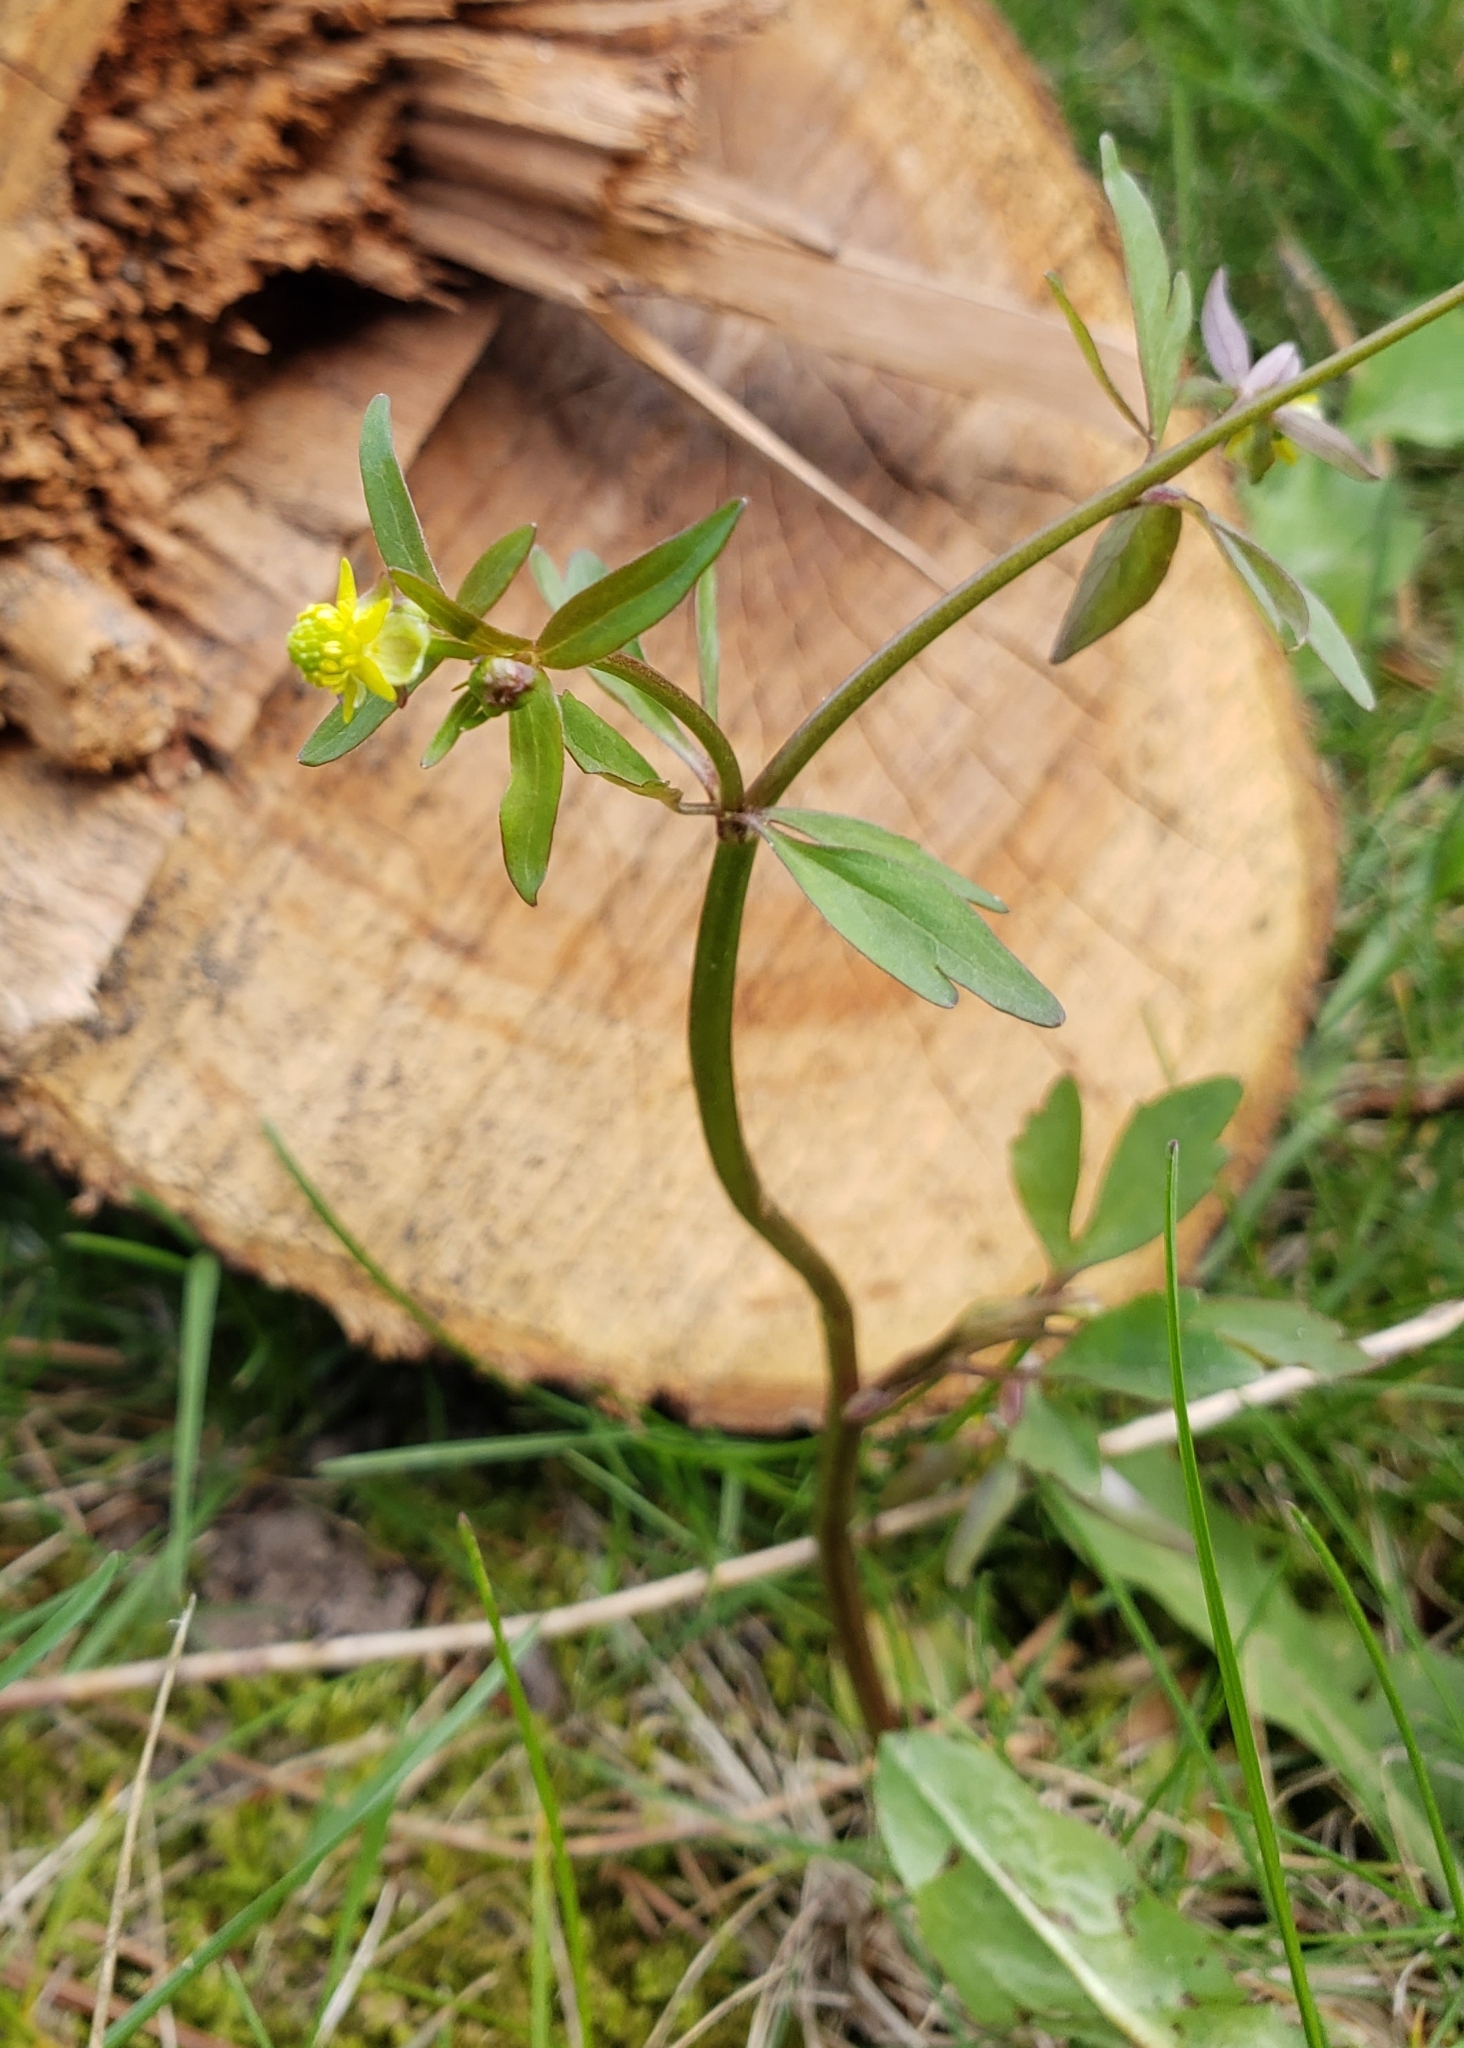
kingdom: Plantae
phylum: Tracheophyta
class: Magnoliopsida
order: Ranunculales
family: Ranunculaceae
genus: Ranunculus
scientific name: Ranunculus abortivus
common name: Early wood buttercup
